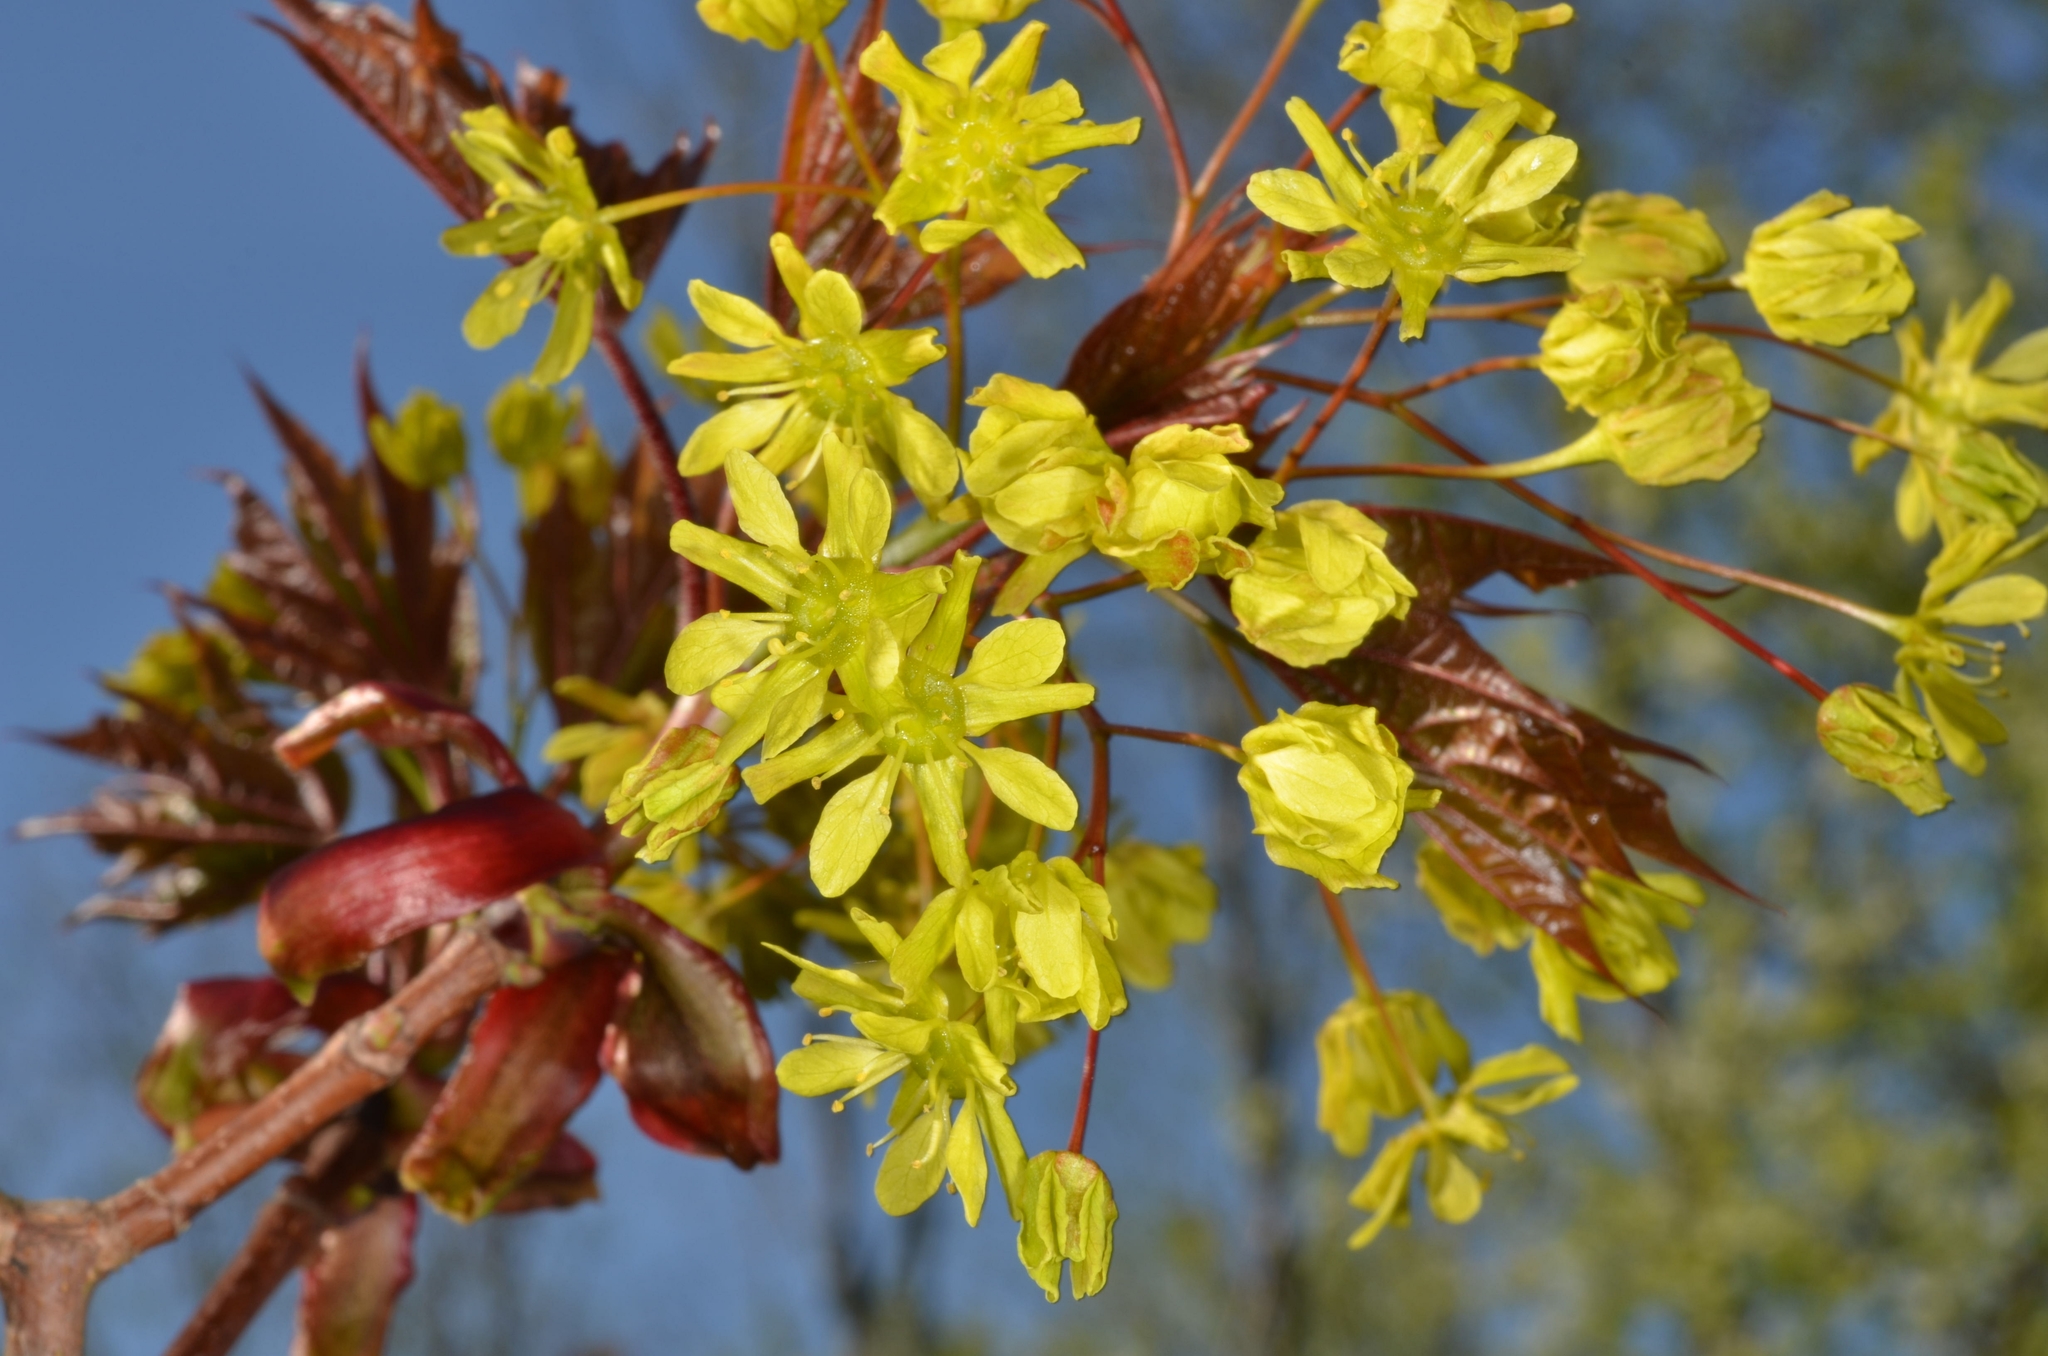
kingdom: Plantae
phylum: Tracheophyta
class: Magnoliopsida
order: Sapindales
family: Sapindaceae
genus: Acer
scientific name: Acer platanoides
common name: Norway maple
